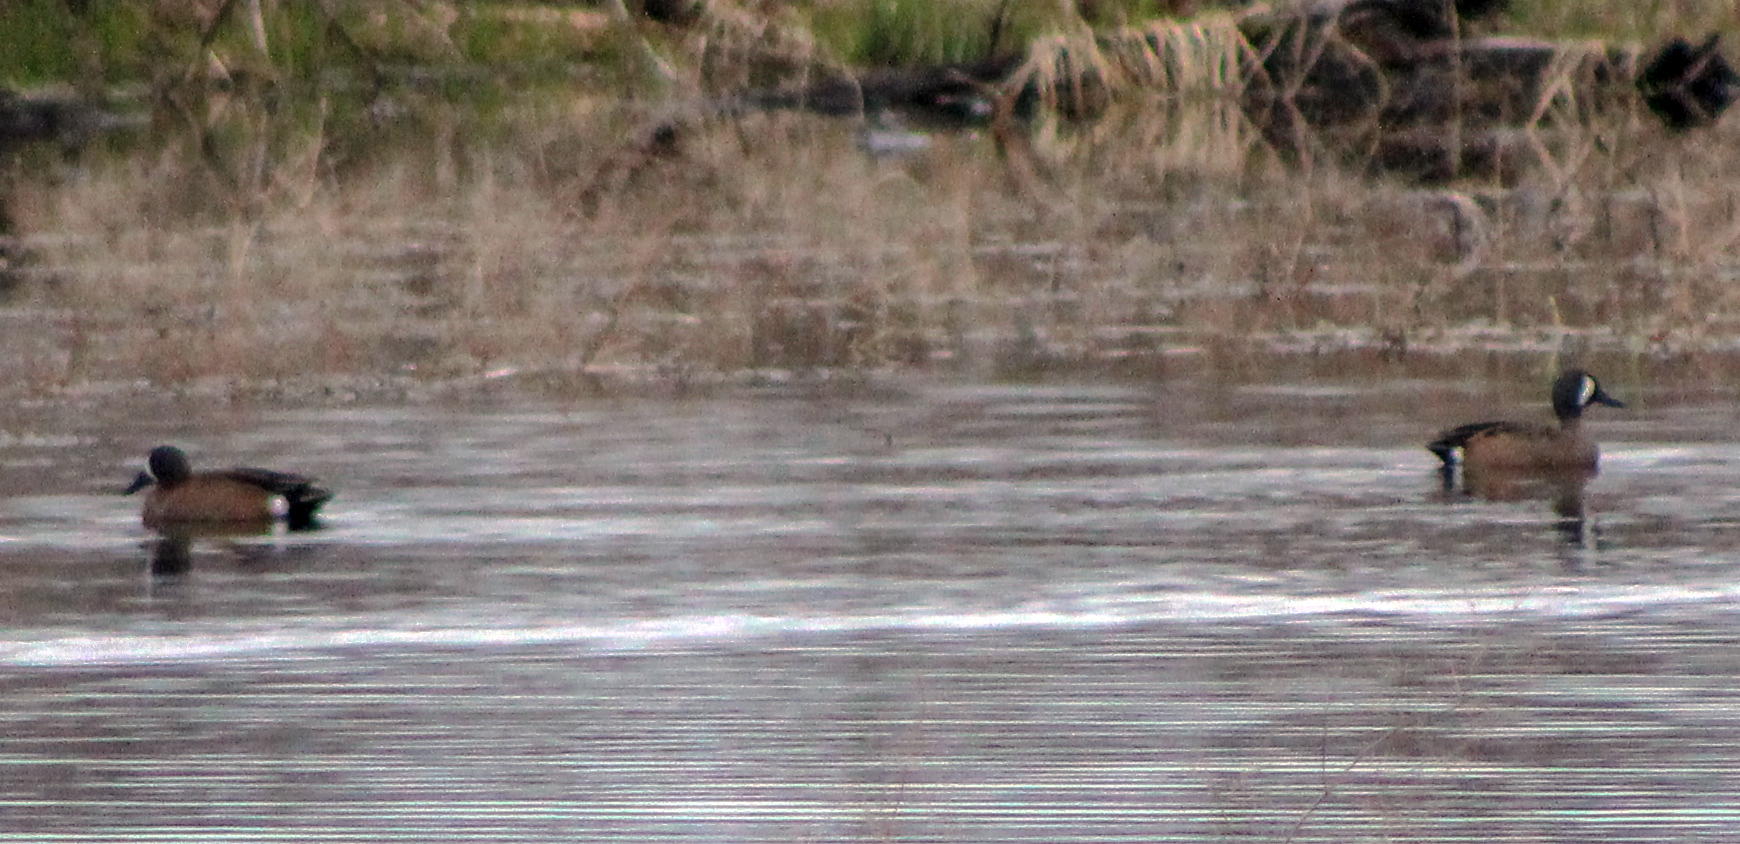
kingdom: Animalia
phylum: Chordata
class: Aves
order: Anseriformes
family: Anatidae
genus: Spatula
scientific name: Spatula discors
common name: Blue-winged teal
